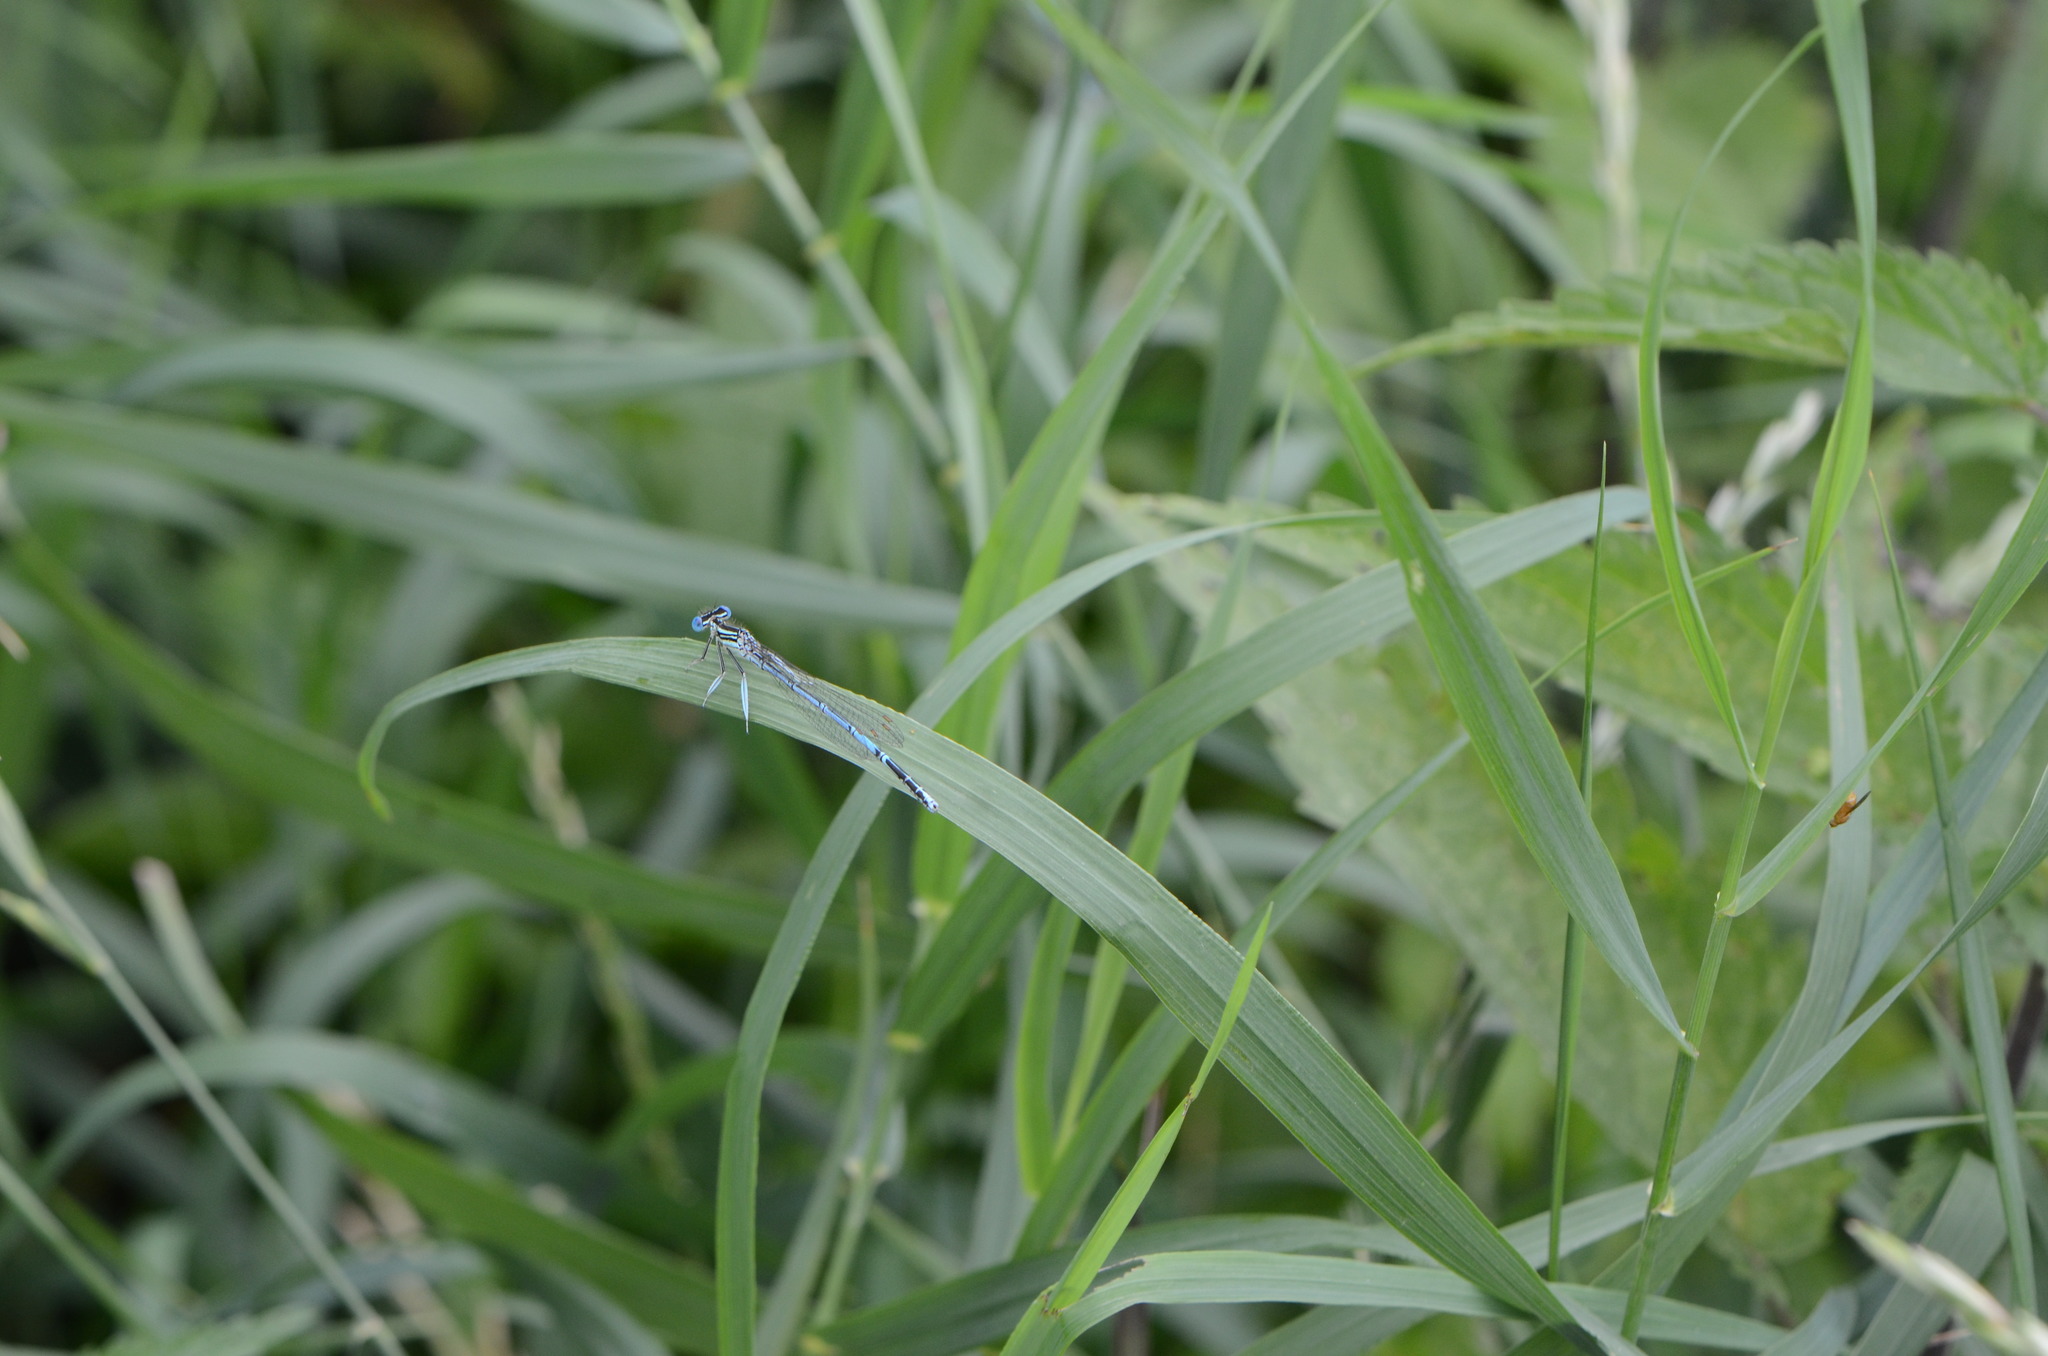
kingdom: Animalia
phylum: Arthropoda
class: Insecta
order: Odonata
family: Platycnemididae
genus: Platycnemis
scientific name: Platycnemis pennipes
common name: White-legged damselfly
